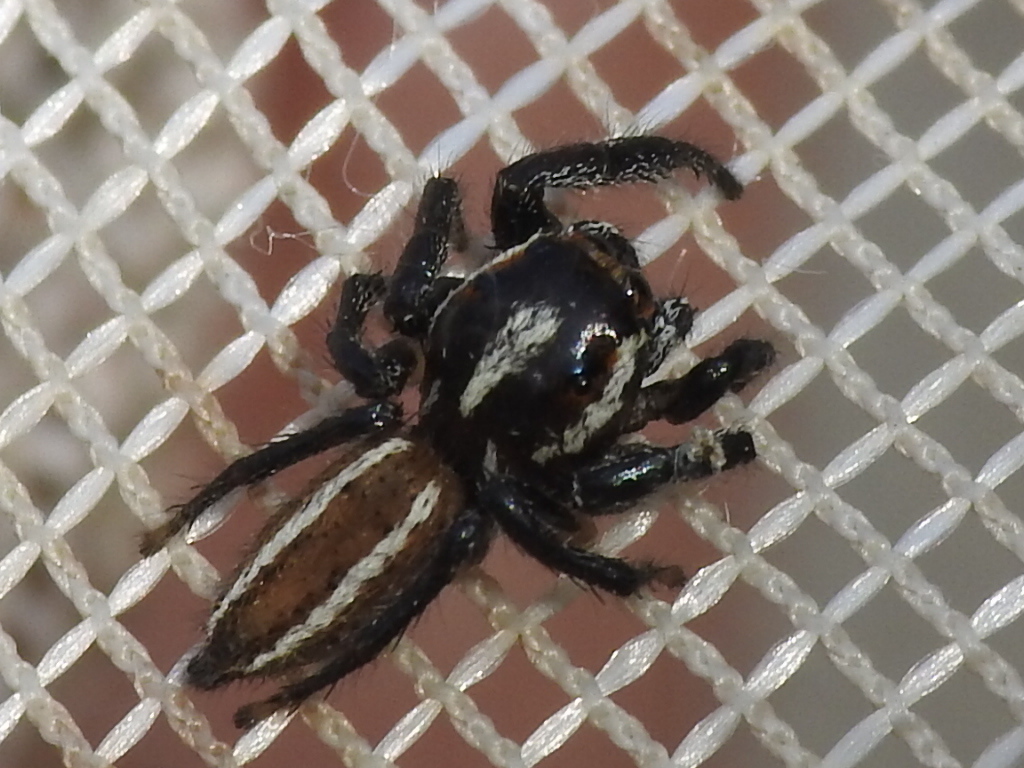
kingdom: Animalia
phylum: Arthropoda
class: Arachnida
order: Araneae
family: Salticidae
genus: Colonus
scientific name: Colonus puerperus
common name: Jumping spiders
